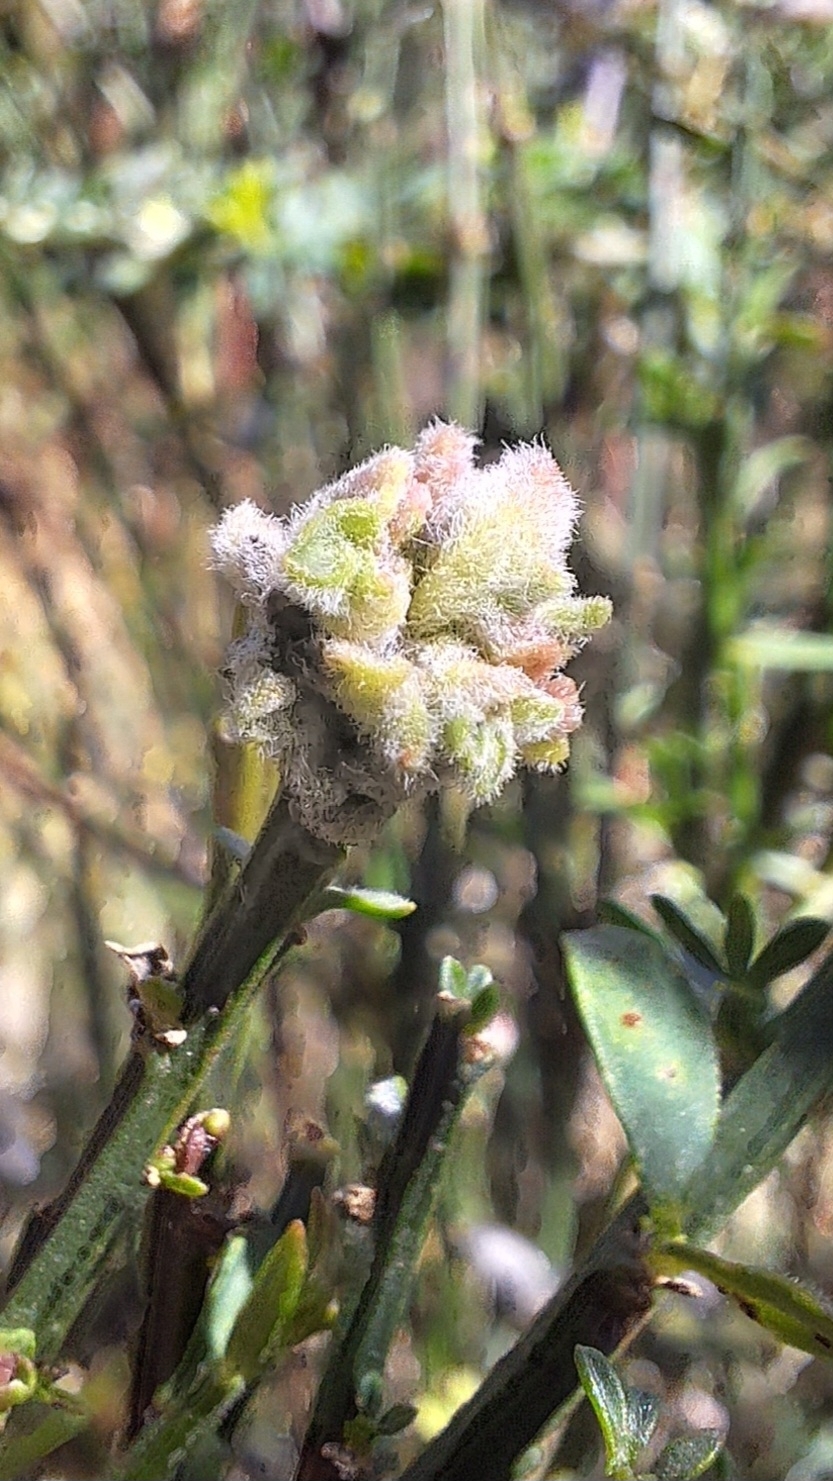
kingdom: Animalia
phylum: Arthropoda
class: Arachnida
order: Trombidiformes
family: Eriophyidae
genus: Aceria
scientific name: Aceria genistae
